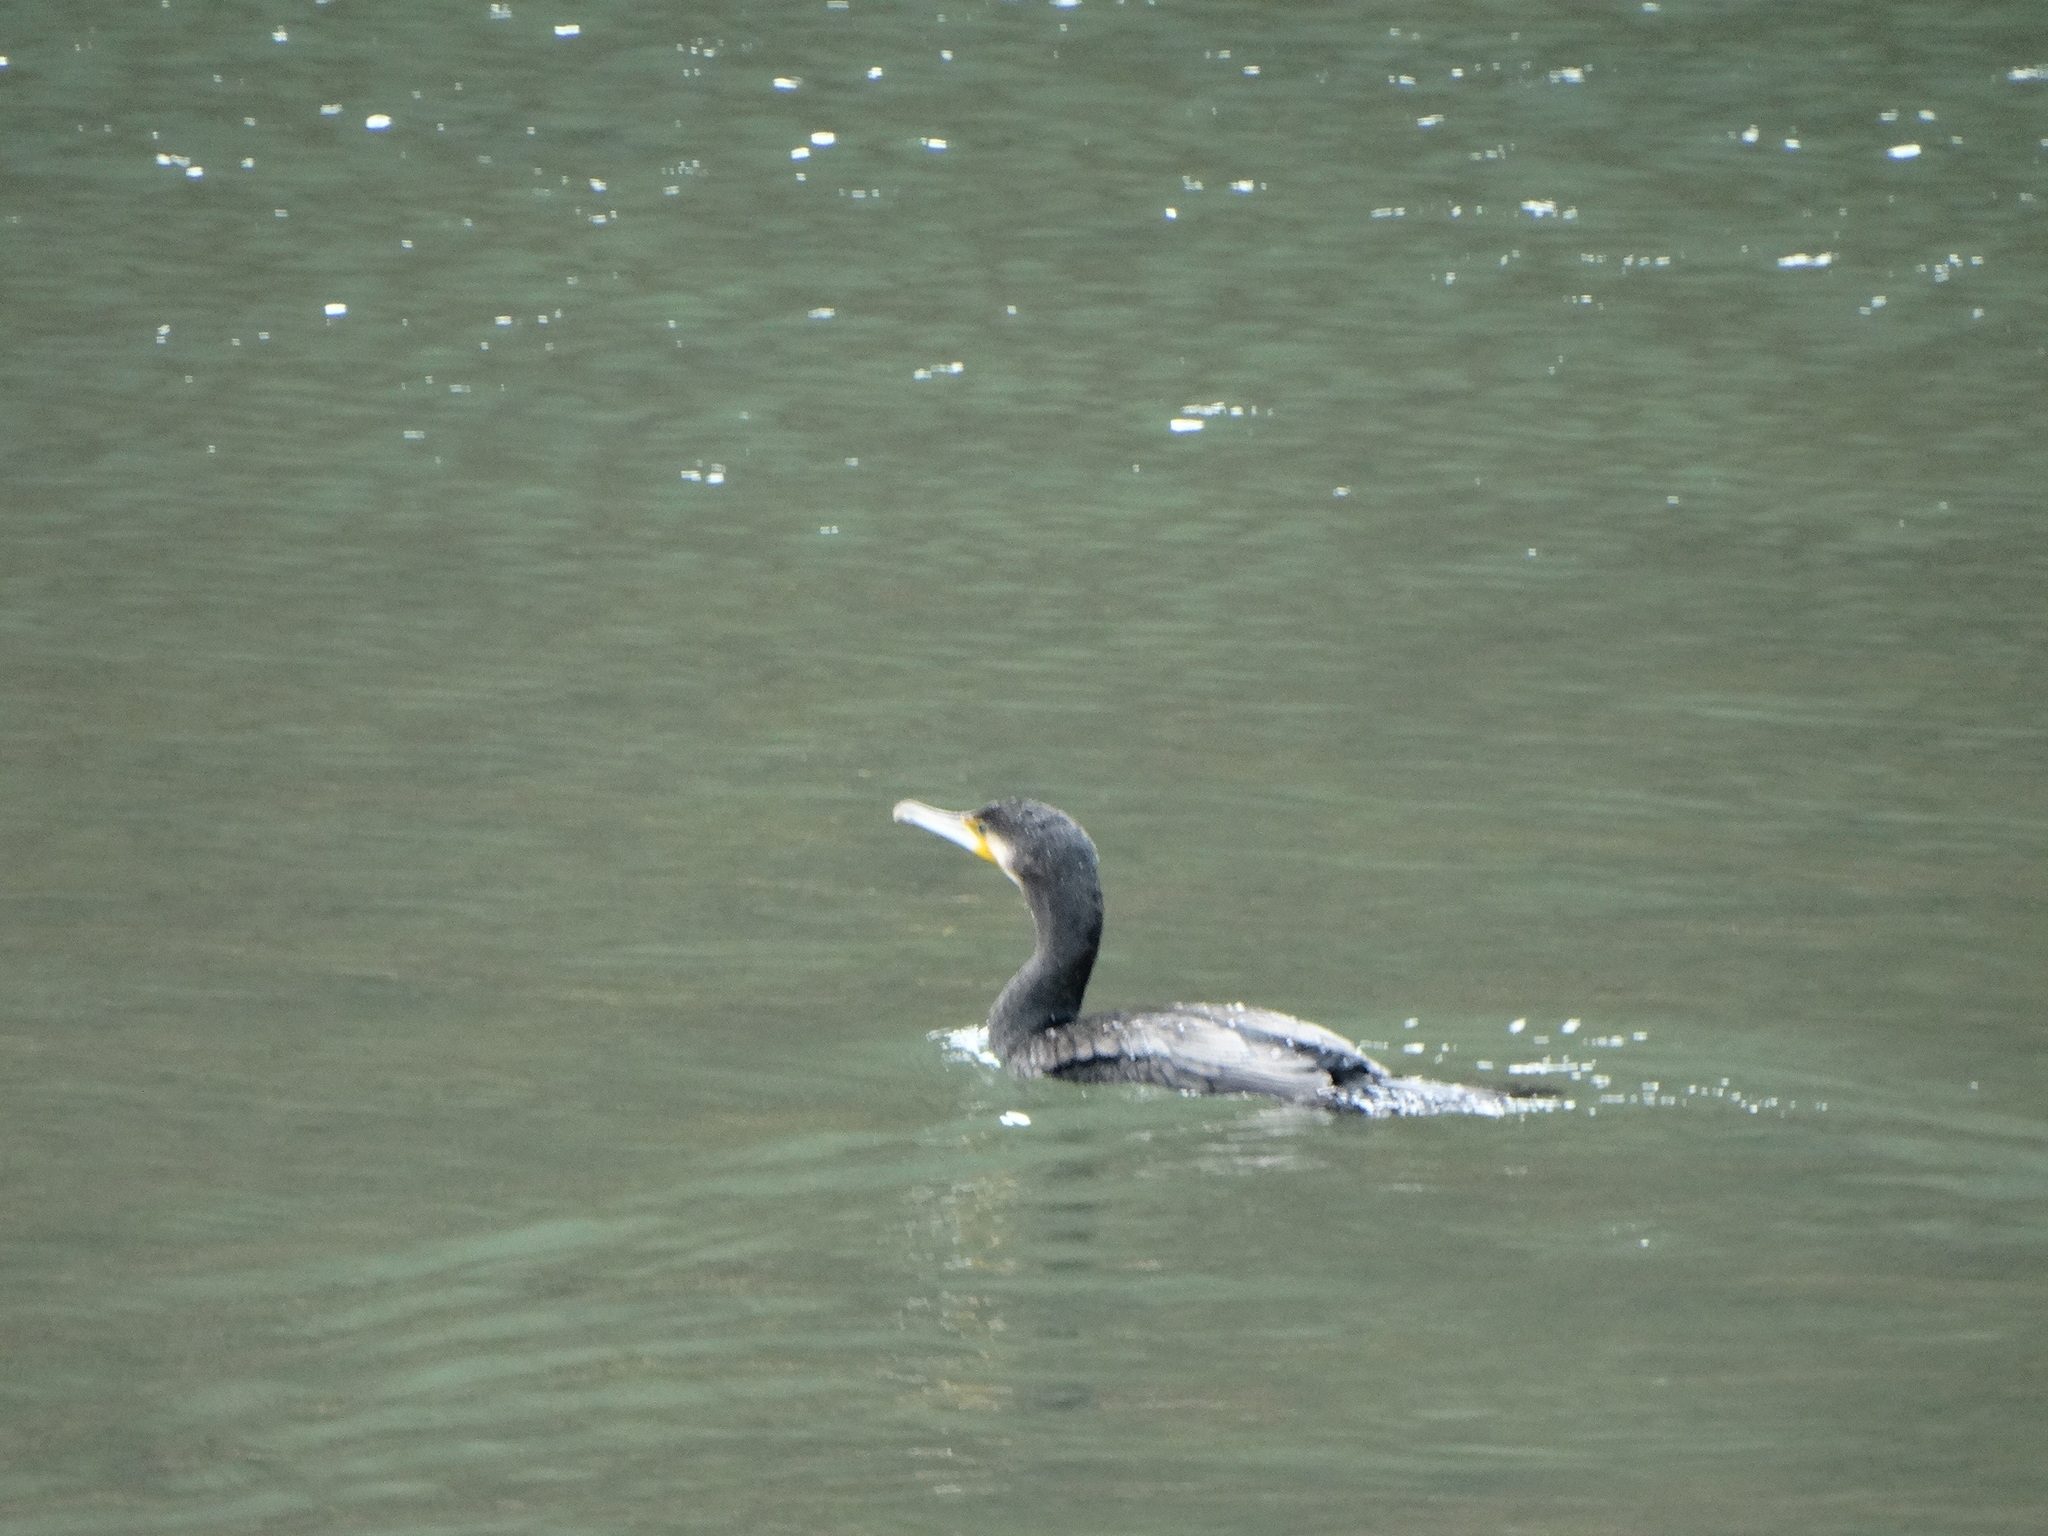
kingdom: Animalia
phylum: Chordata
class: Aves
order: Suliformes
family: Phalacrocoracidae
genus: Phalacrocorax
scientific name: Phalacrocorax carbo
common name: Great cormorant
